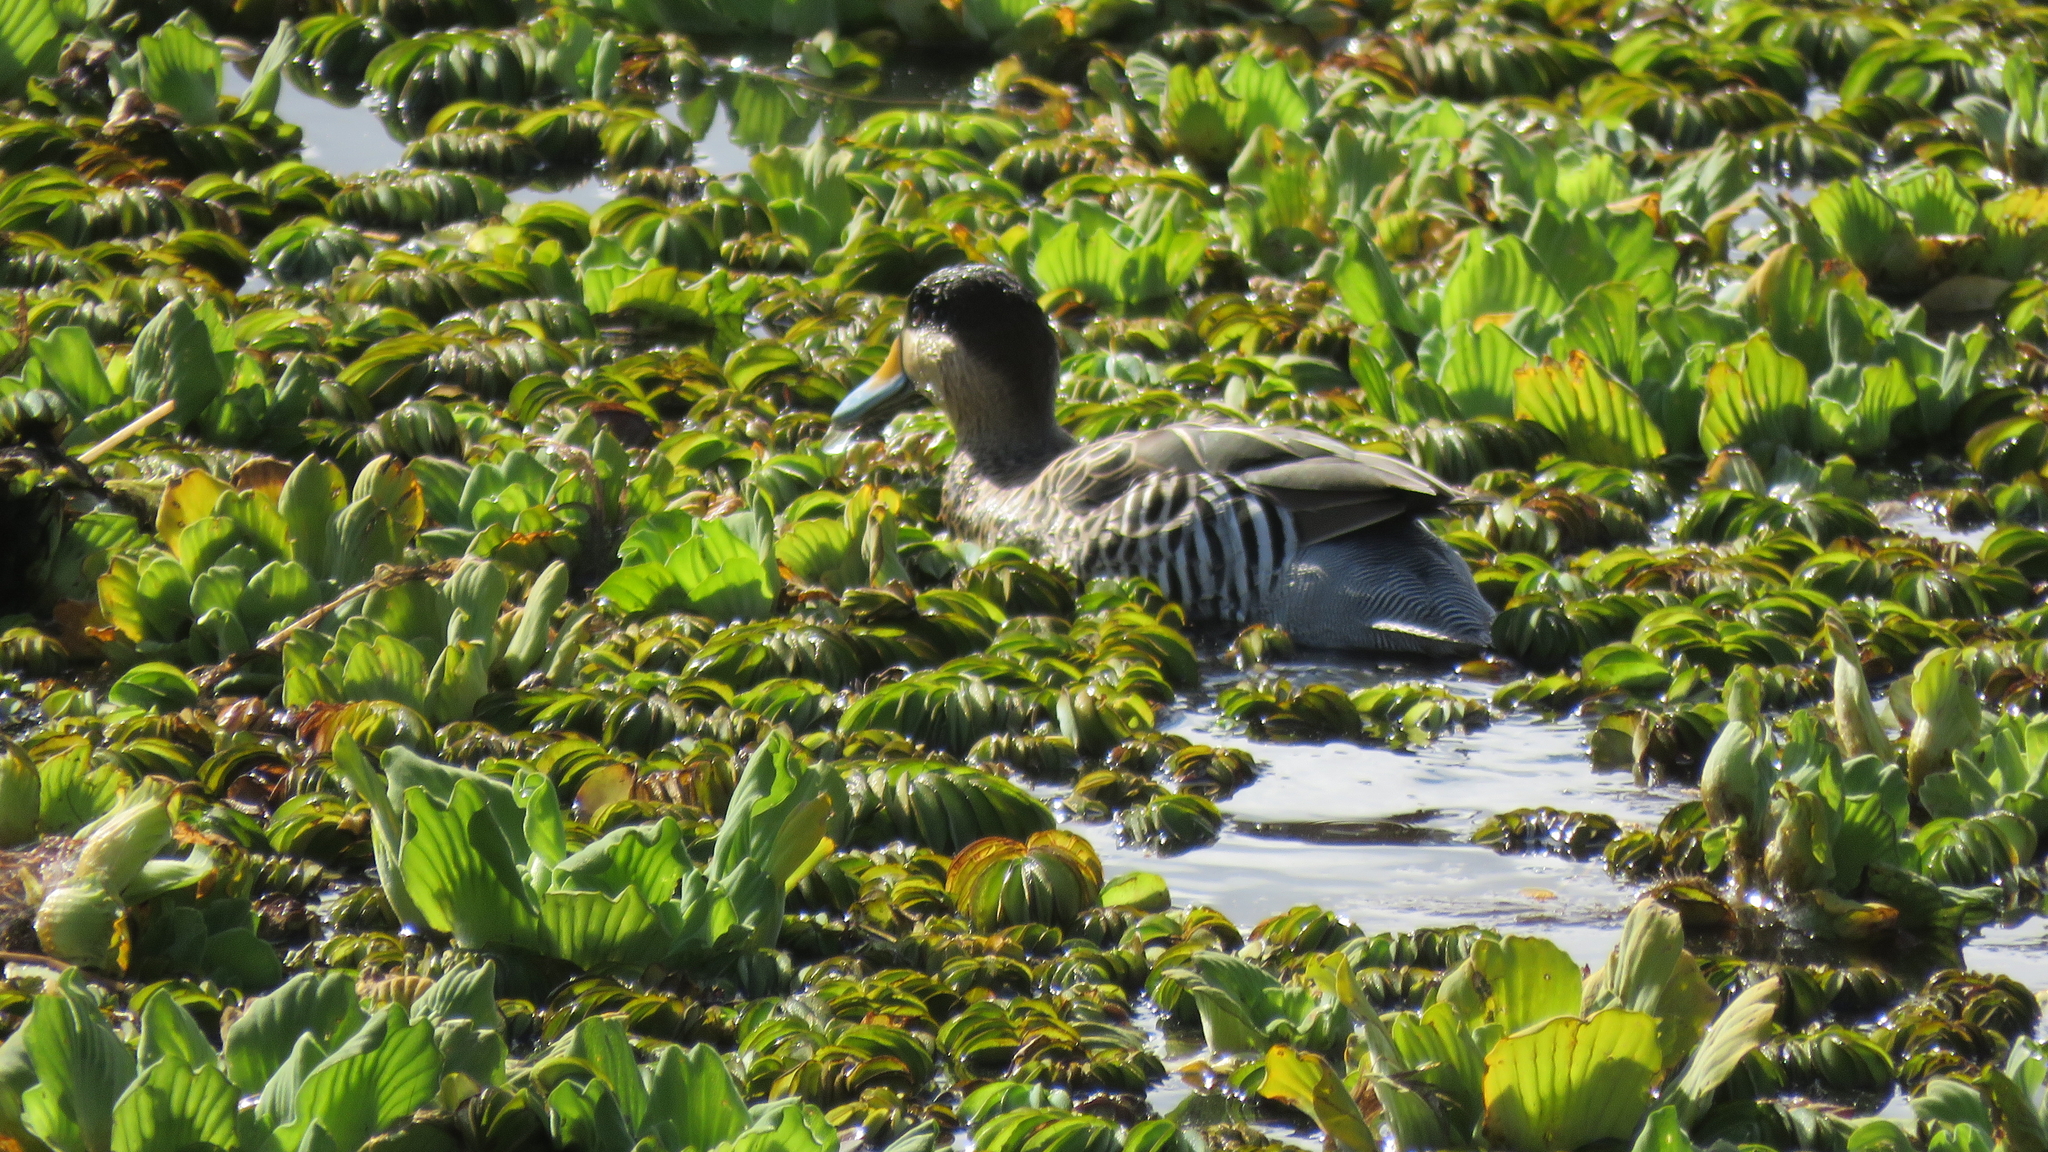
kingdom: Animalia
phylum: Chordata
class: Aves
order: Anseriformes
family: Anatidae
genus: Spatula
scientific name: Spatula versicolor
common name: Silver teal
